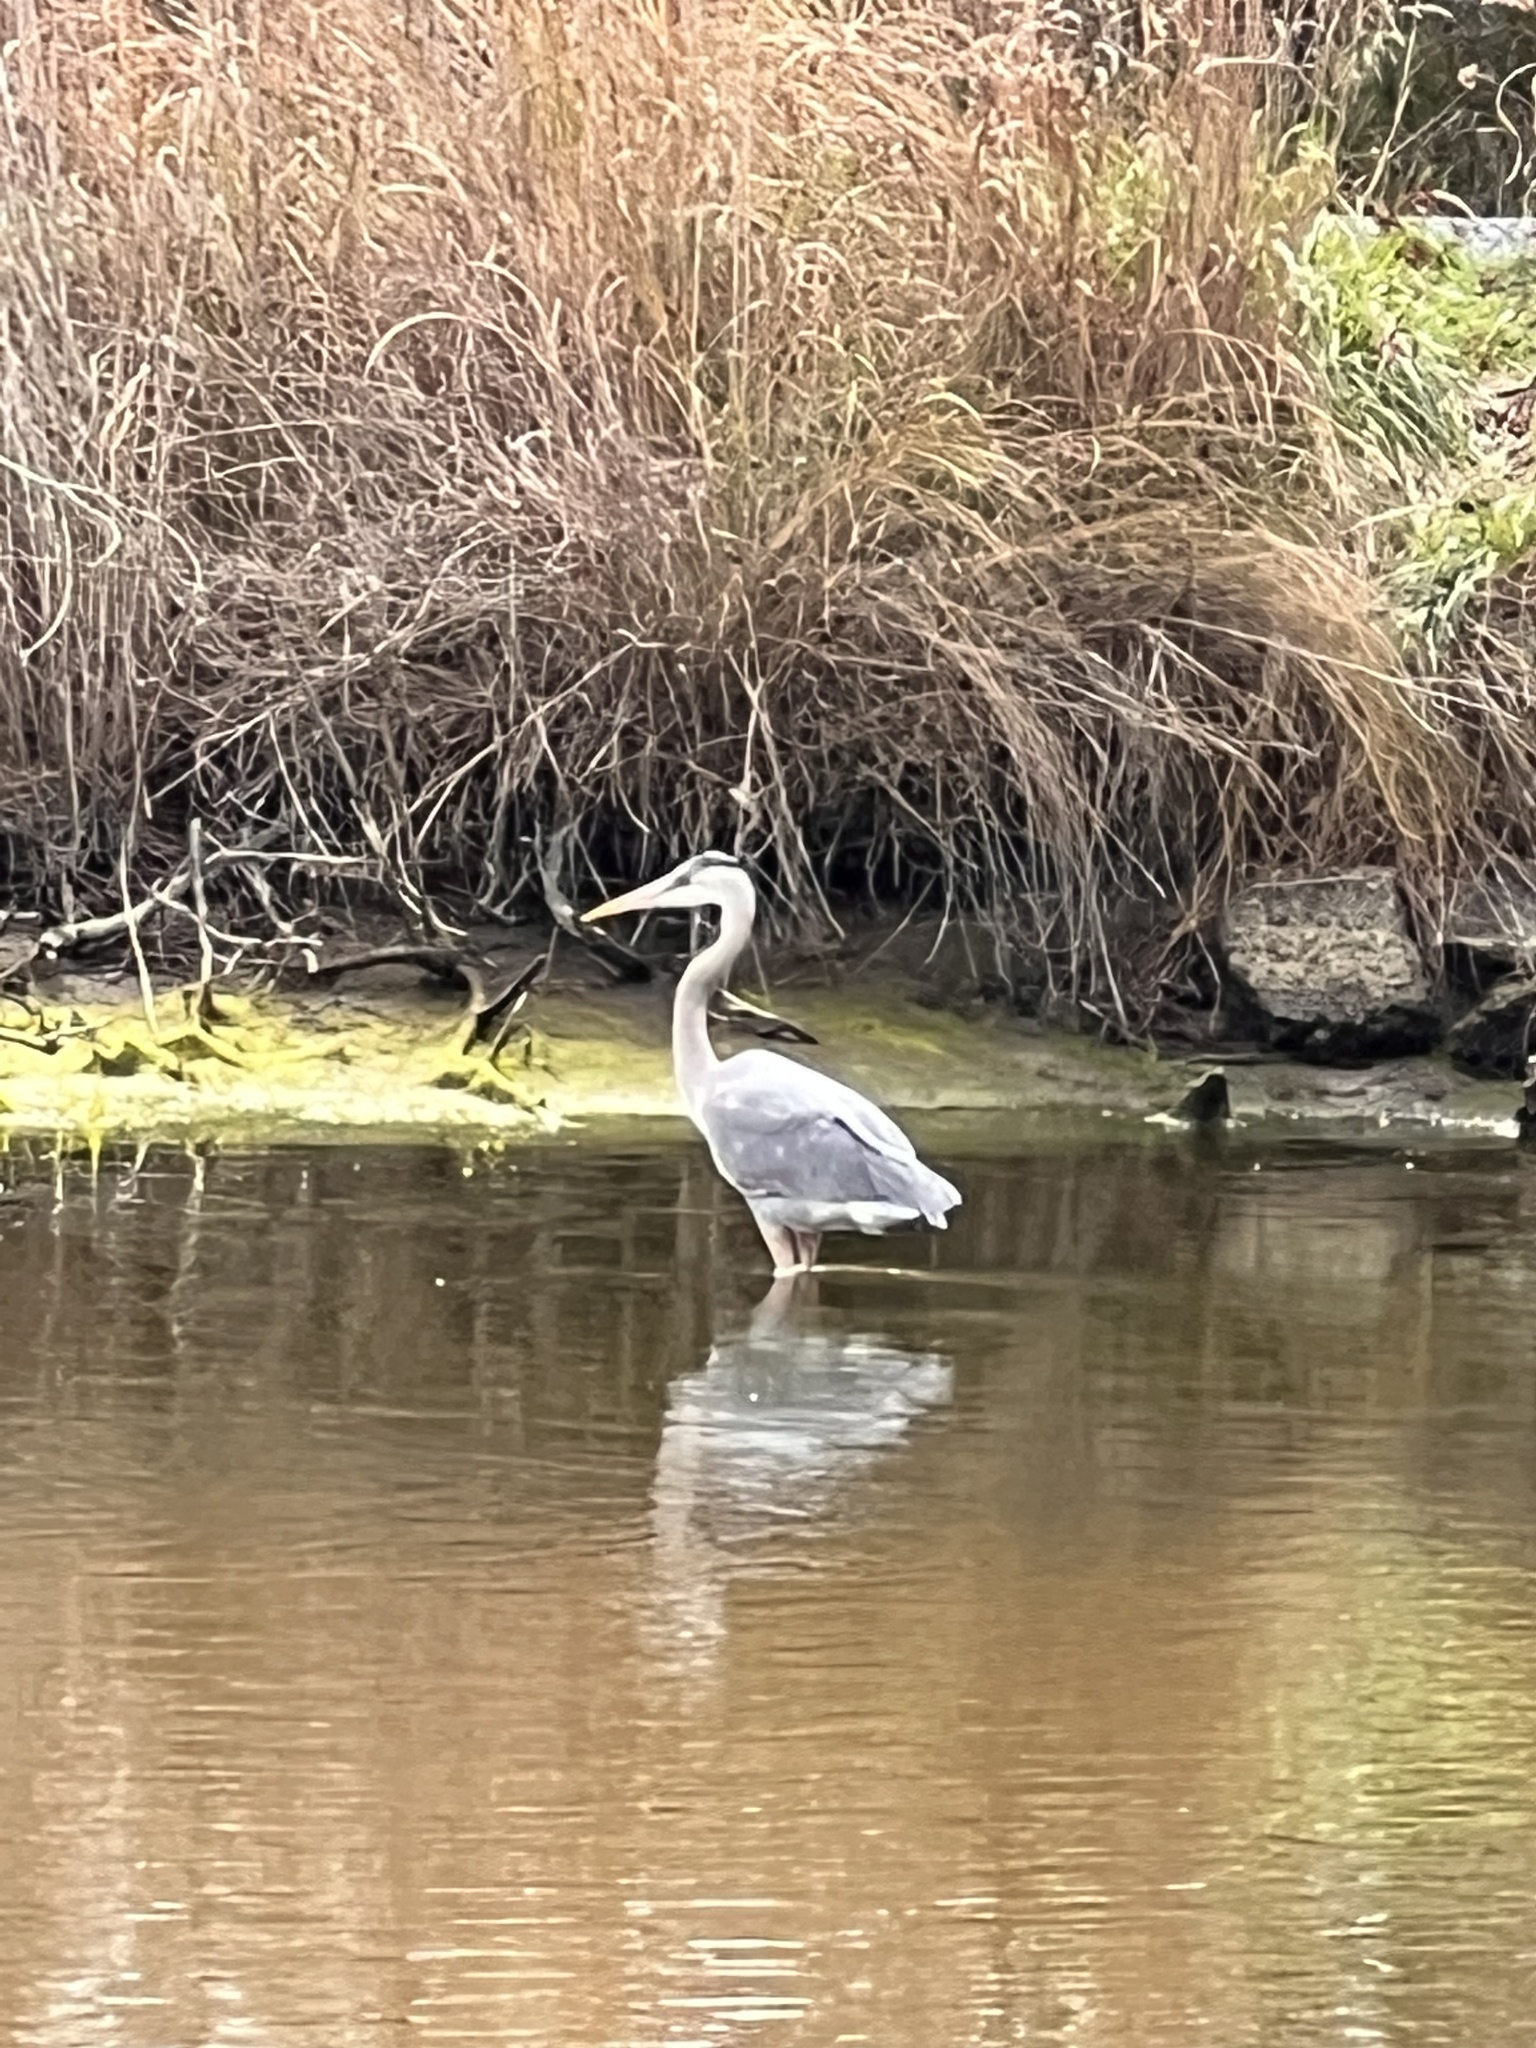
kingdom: Animalia
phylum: Chordata
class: Aves
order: Pelecaniformes
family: Ardeidae
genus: Ardea
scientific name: Ardea herodias
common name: Great blue heron
